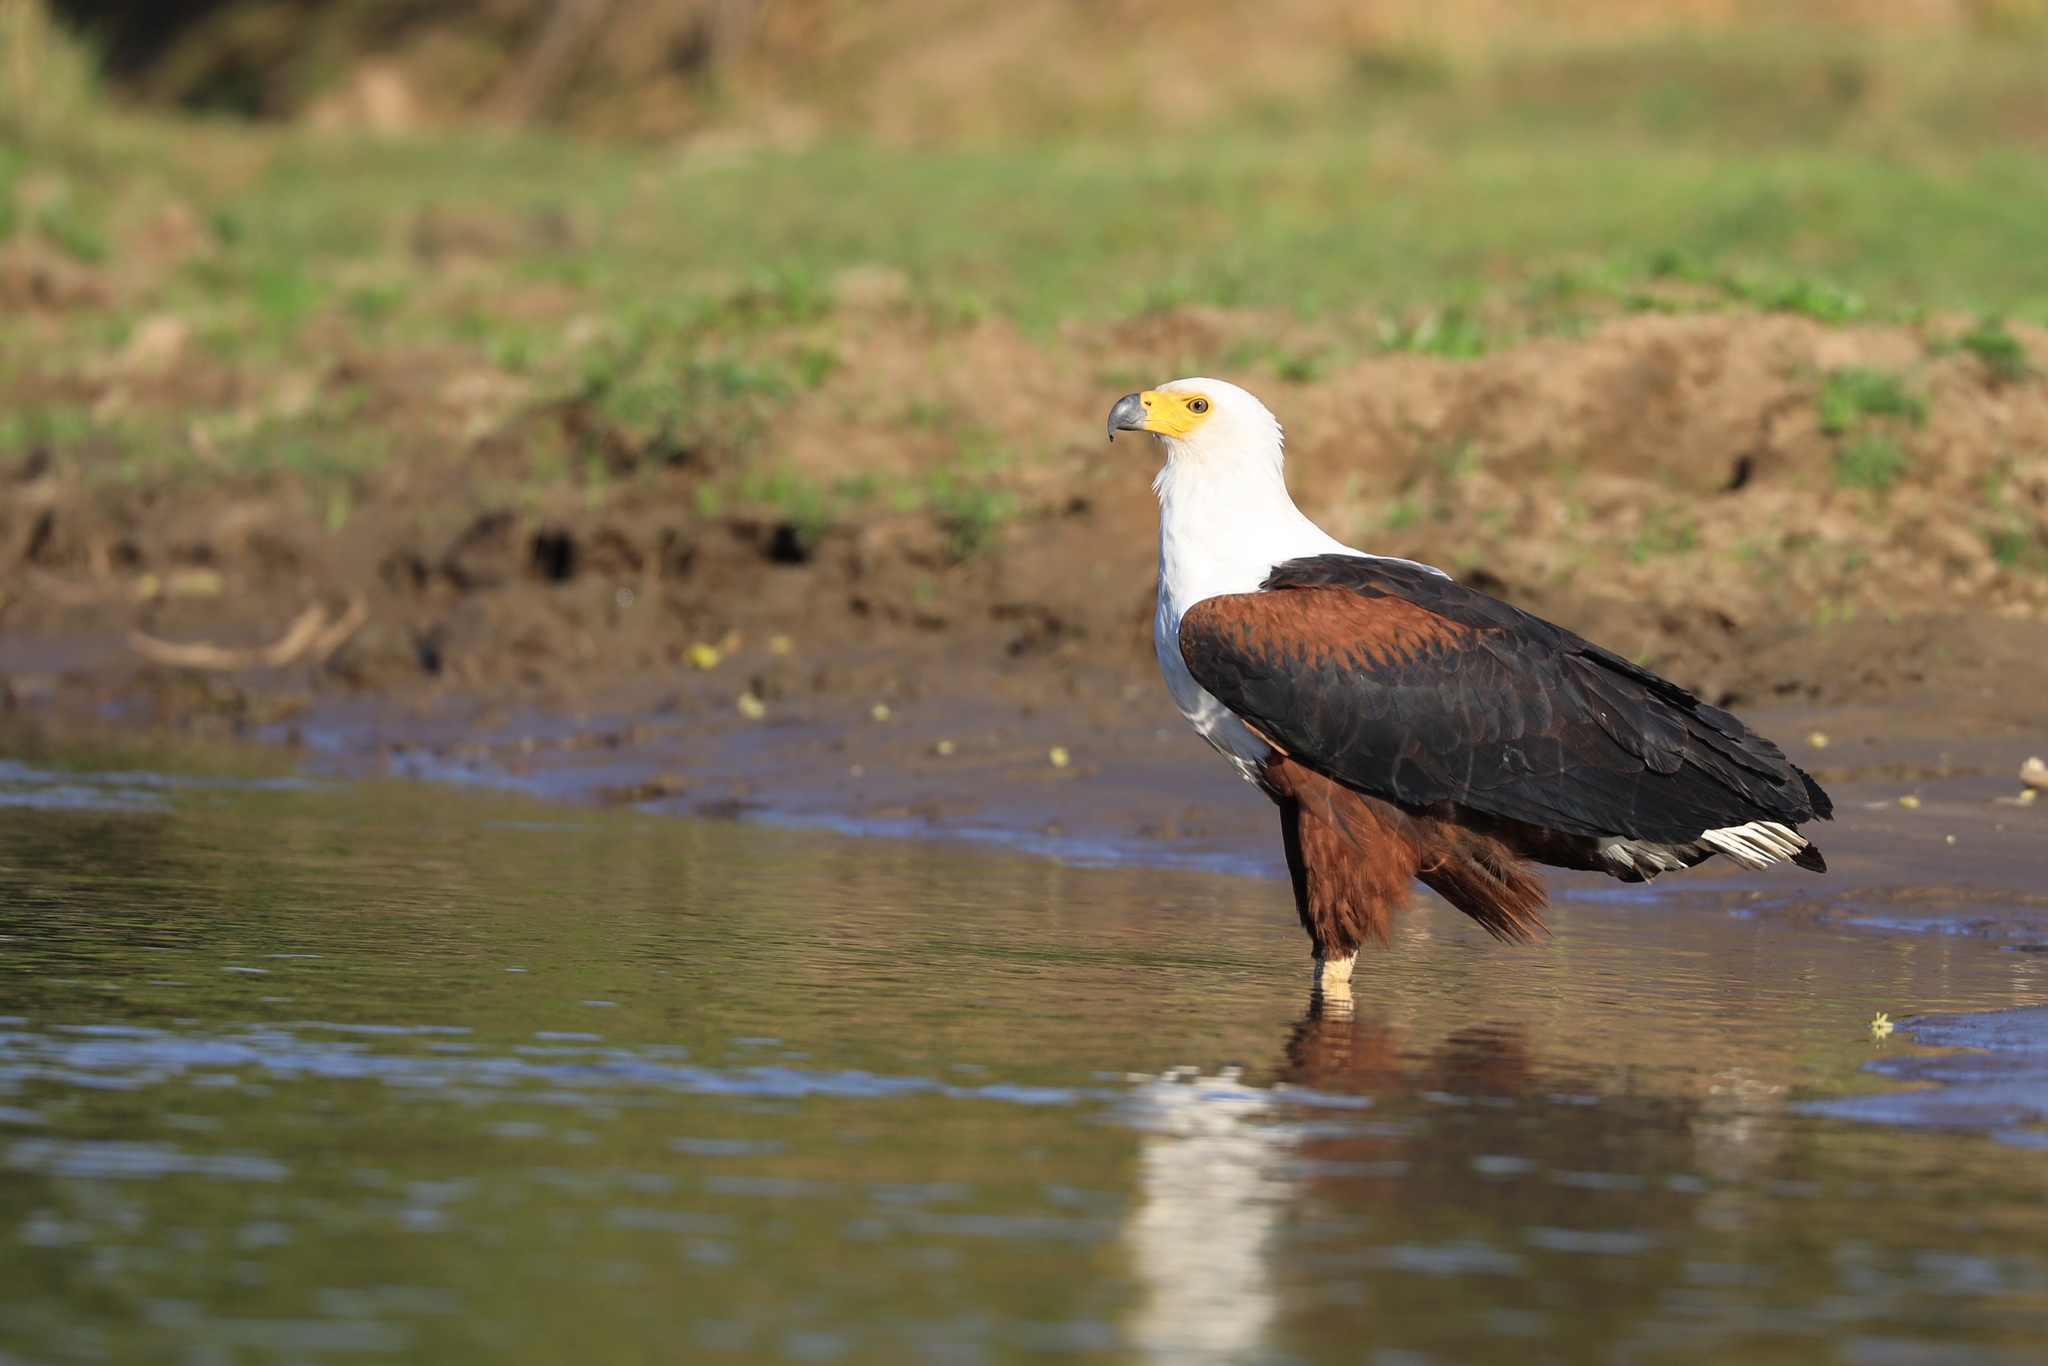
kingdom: Animalia
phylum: Chordata
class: Aves
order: Accipitriformes
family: Accipitridae
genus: Haliaeetus
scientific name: Haliaeetus vocifer
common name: African fish eagle
